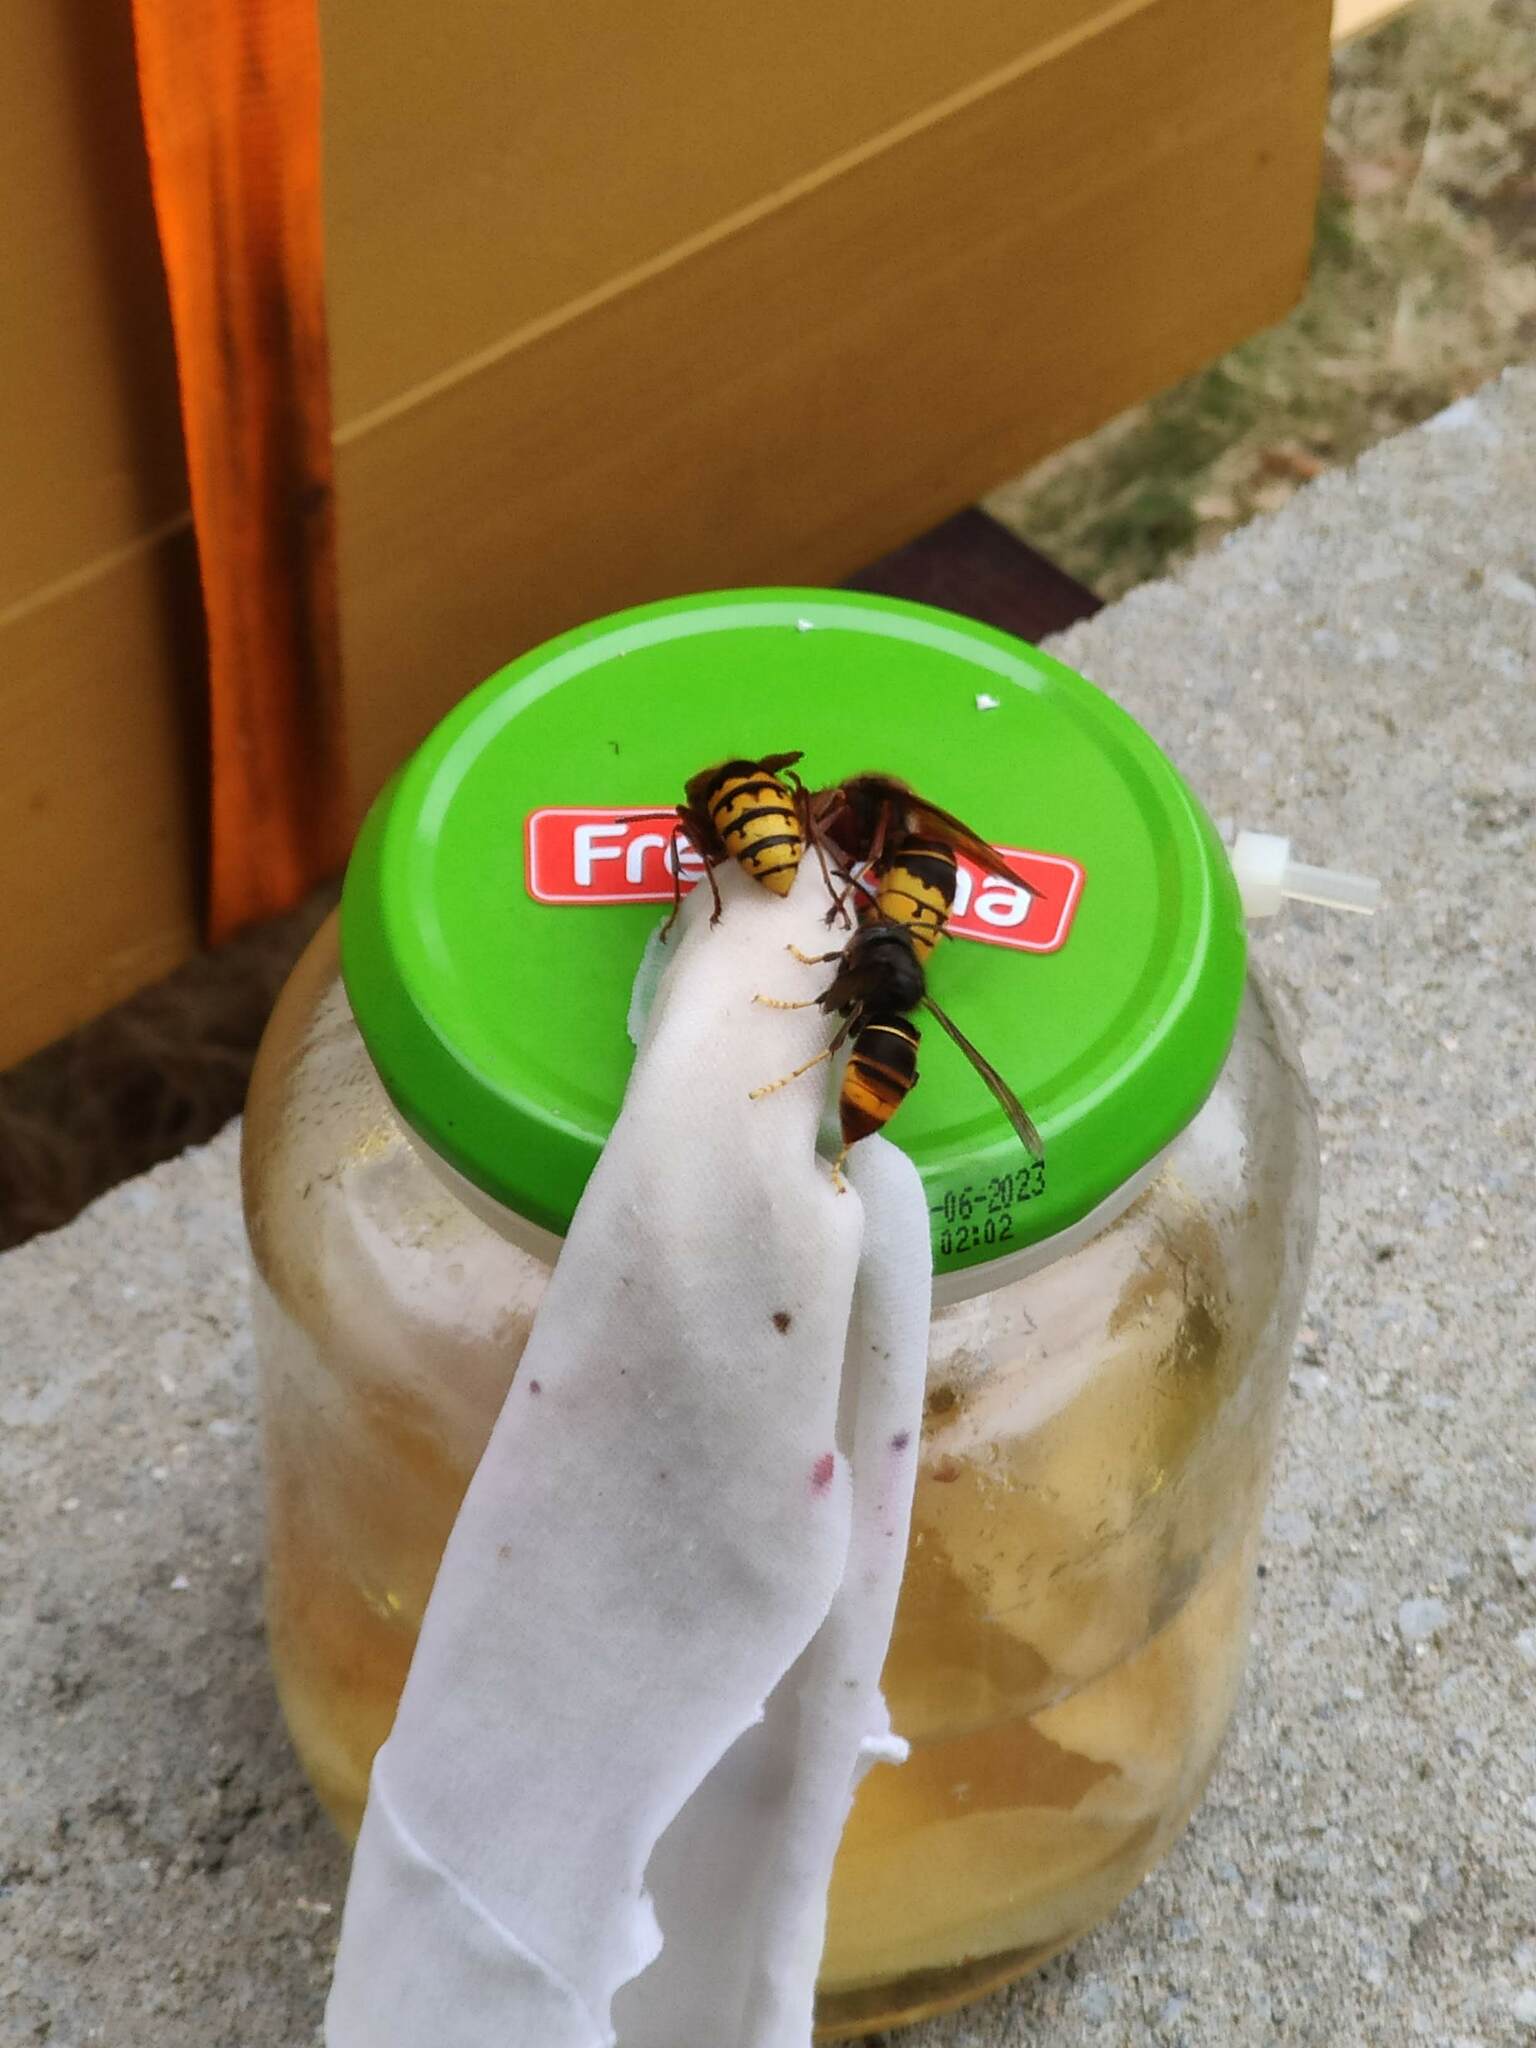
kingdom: Animalia
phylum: Arthropoda
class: Insecta
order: Hymenoptera
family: Vespidae
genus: Vespa
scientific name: Vespa velutina
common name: Asian hornet
